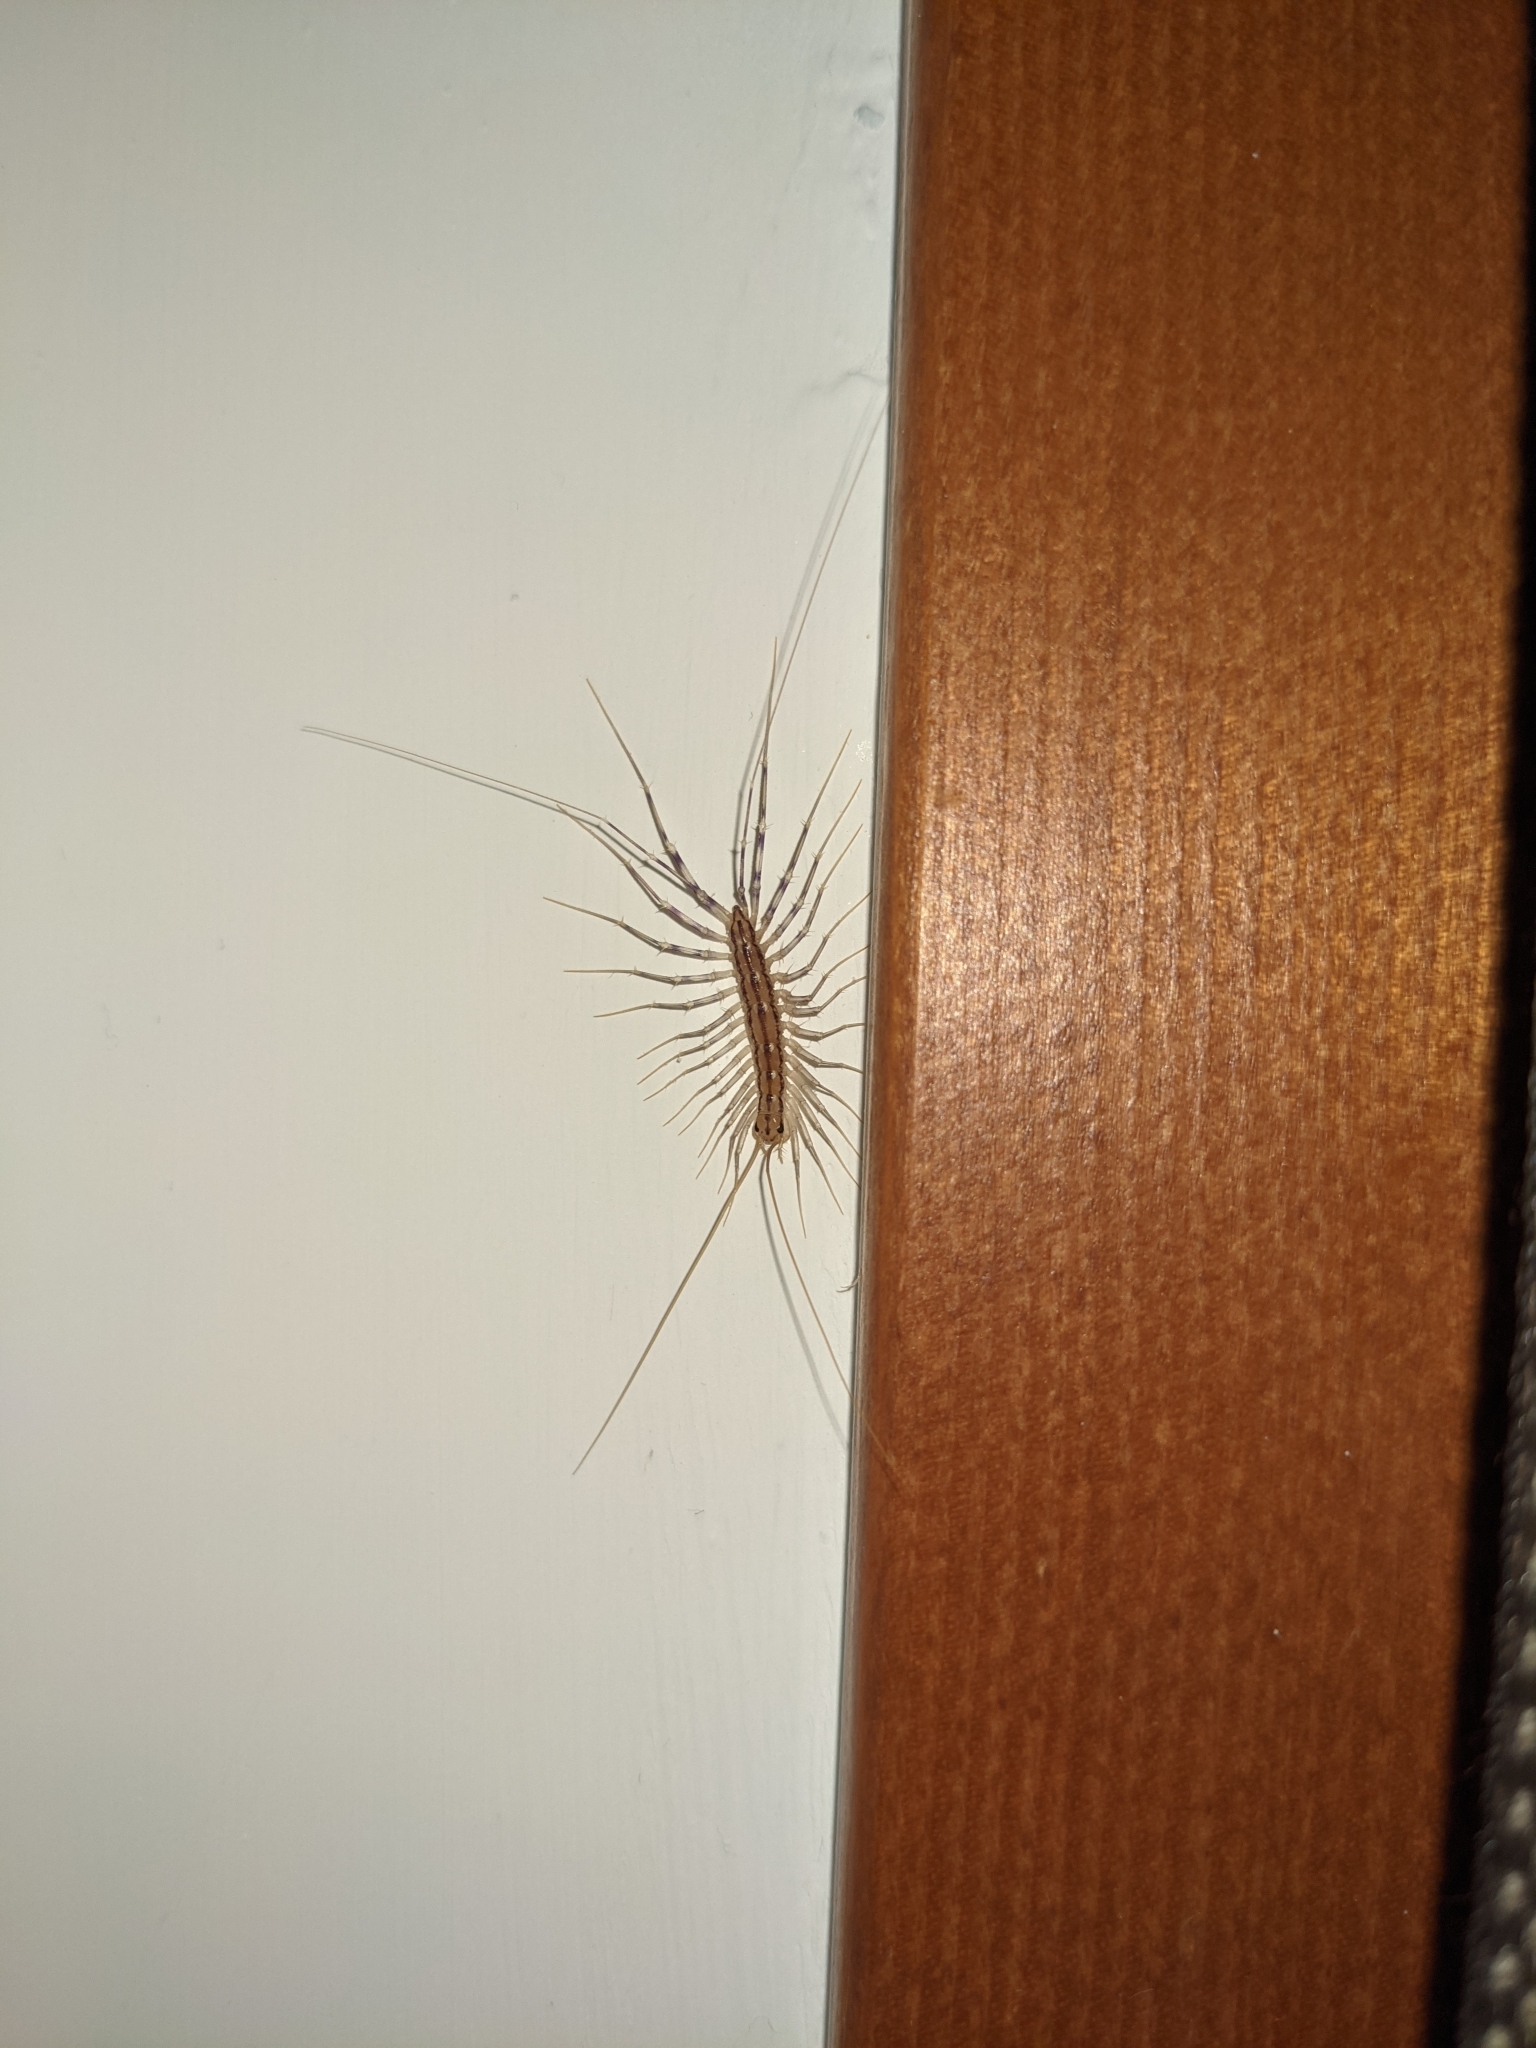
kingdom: Animalia
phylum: Arthropoda
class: Chilopoda
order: Scutigeromorpha
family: Scutigeridae
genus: Scutigera
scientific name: Scutigera coleoptrata
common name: House centipede
